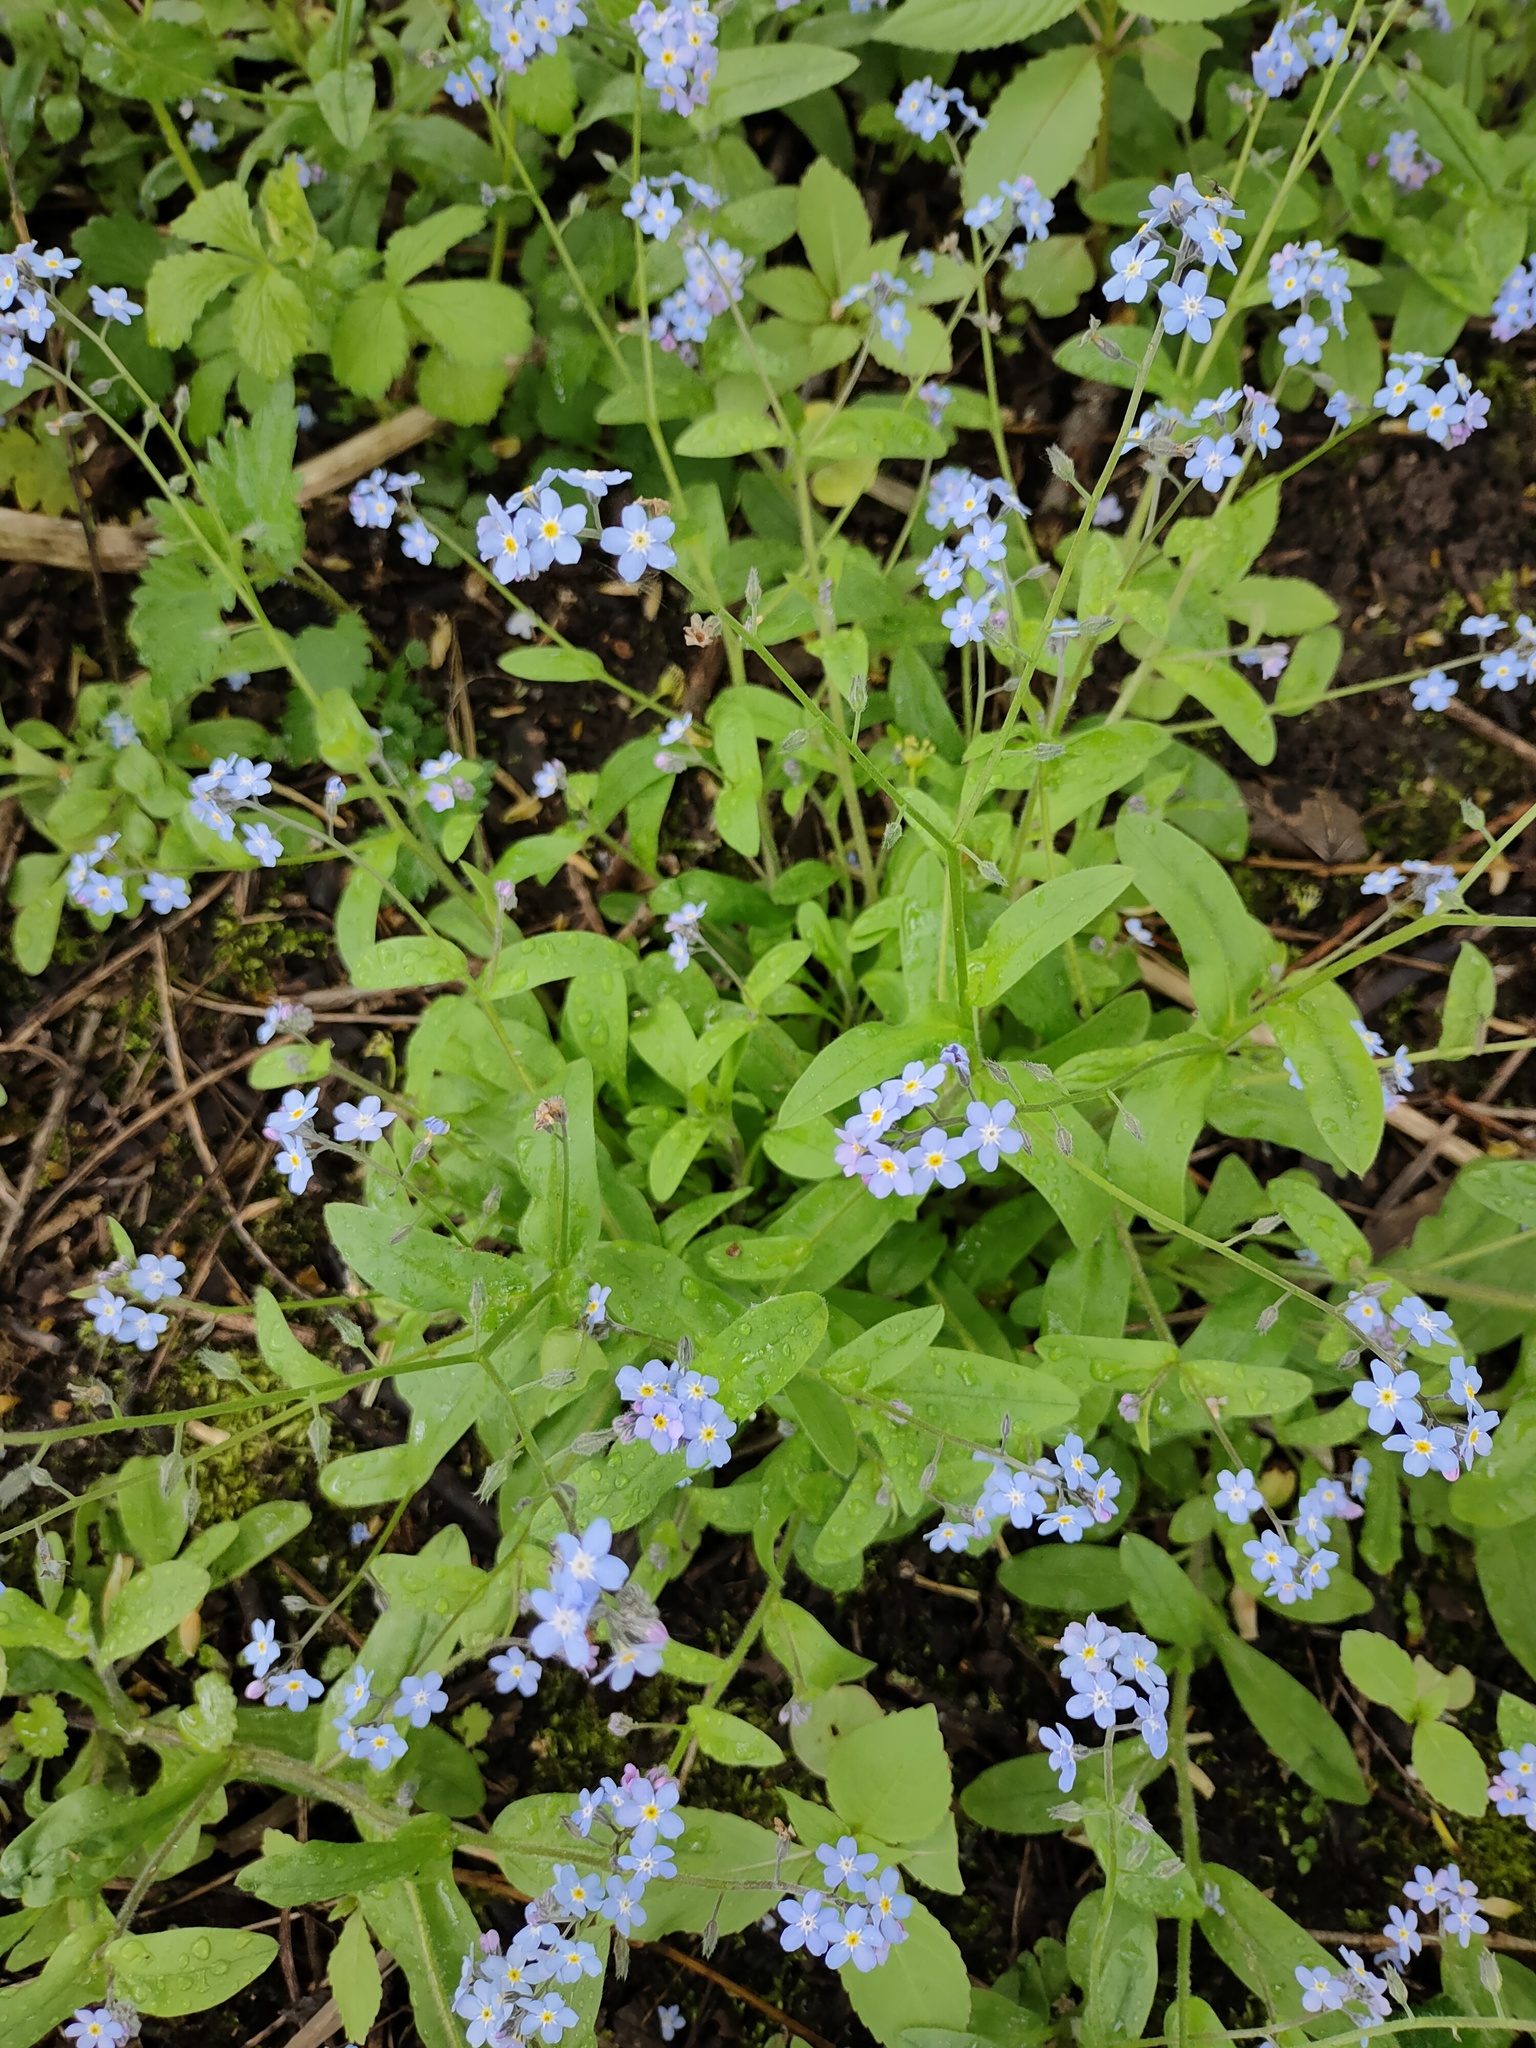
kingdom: Plantae
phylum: Tracheophyta
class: Magnoliopsida
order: Boraginales
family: Boraginaceae
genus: Myosotis
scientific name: Myosotis sylvatica
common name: Wood forget-me-not
